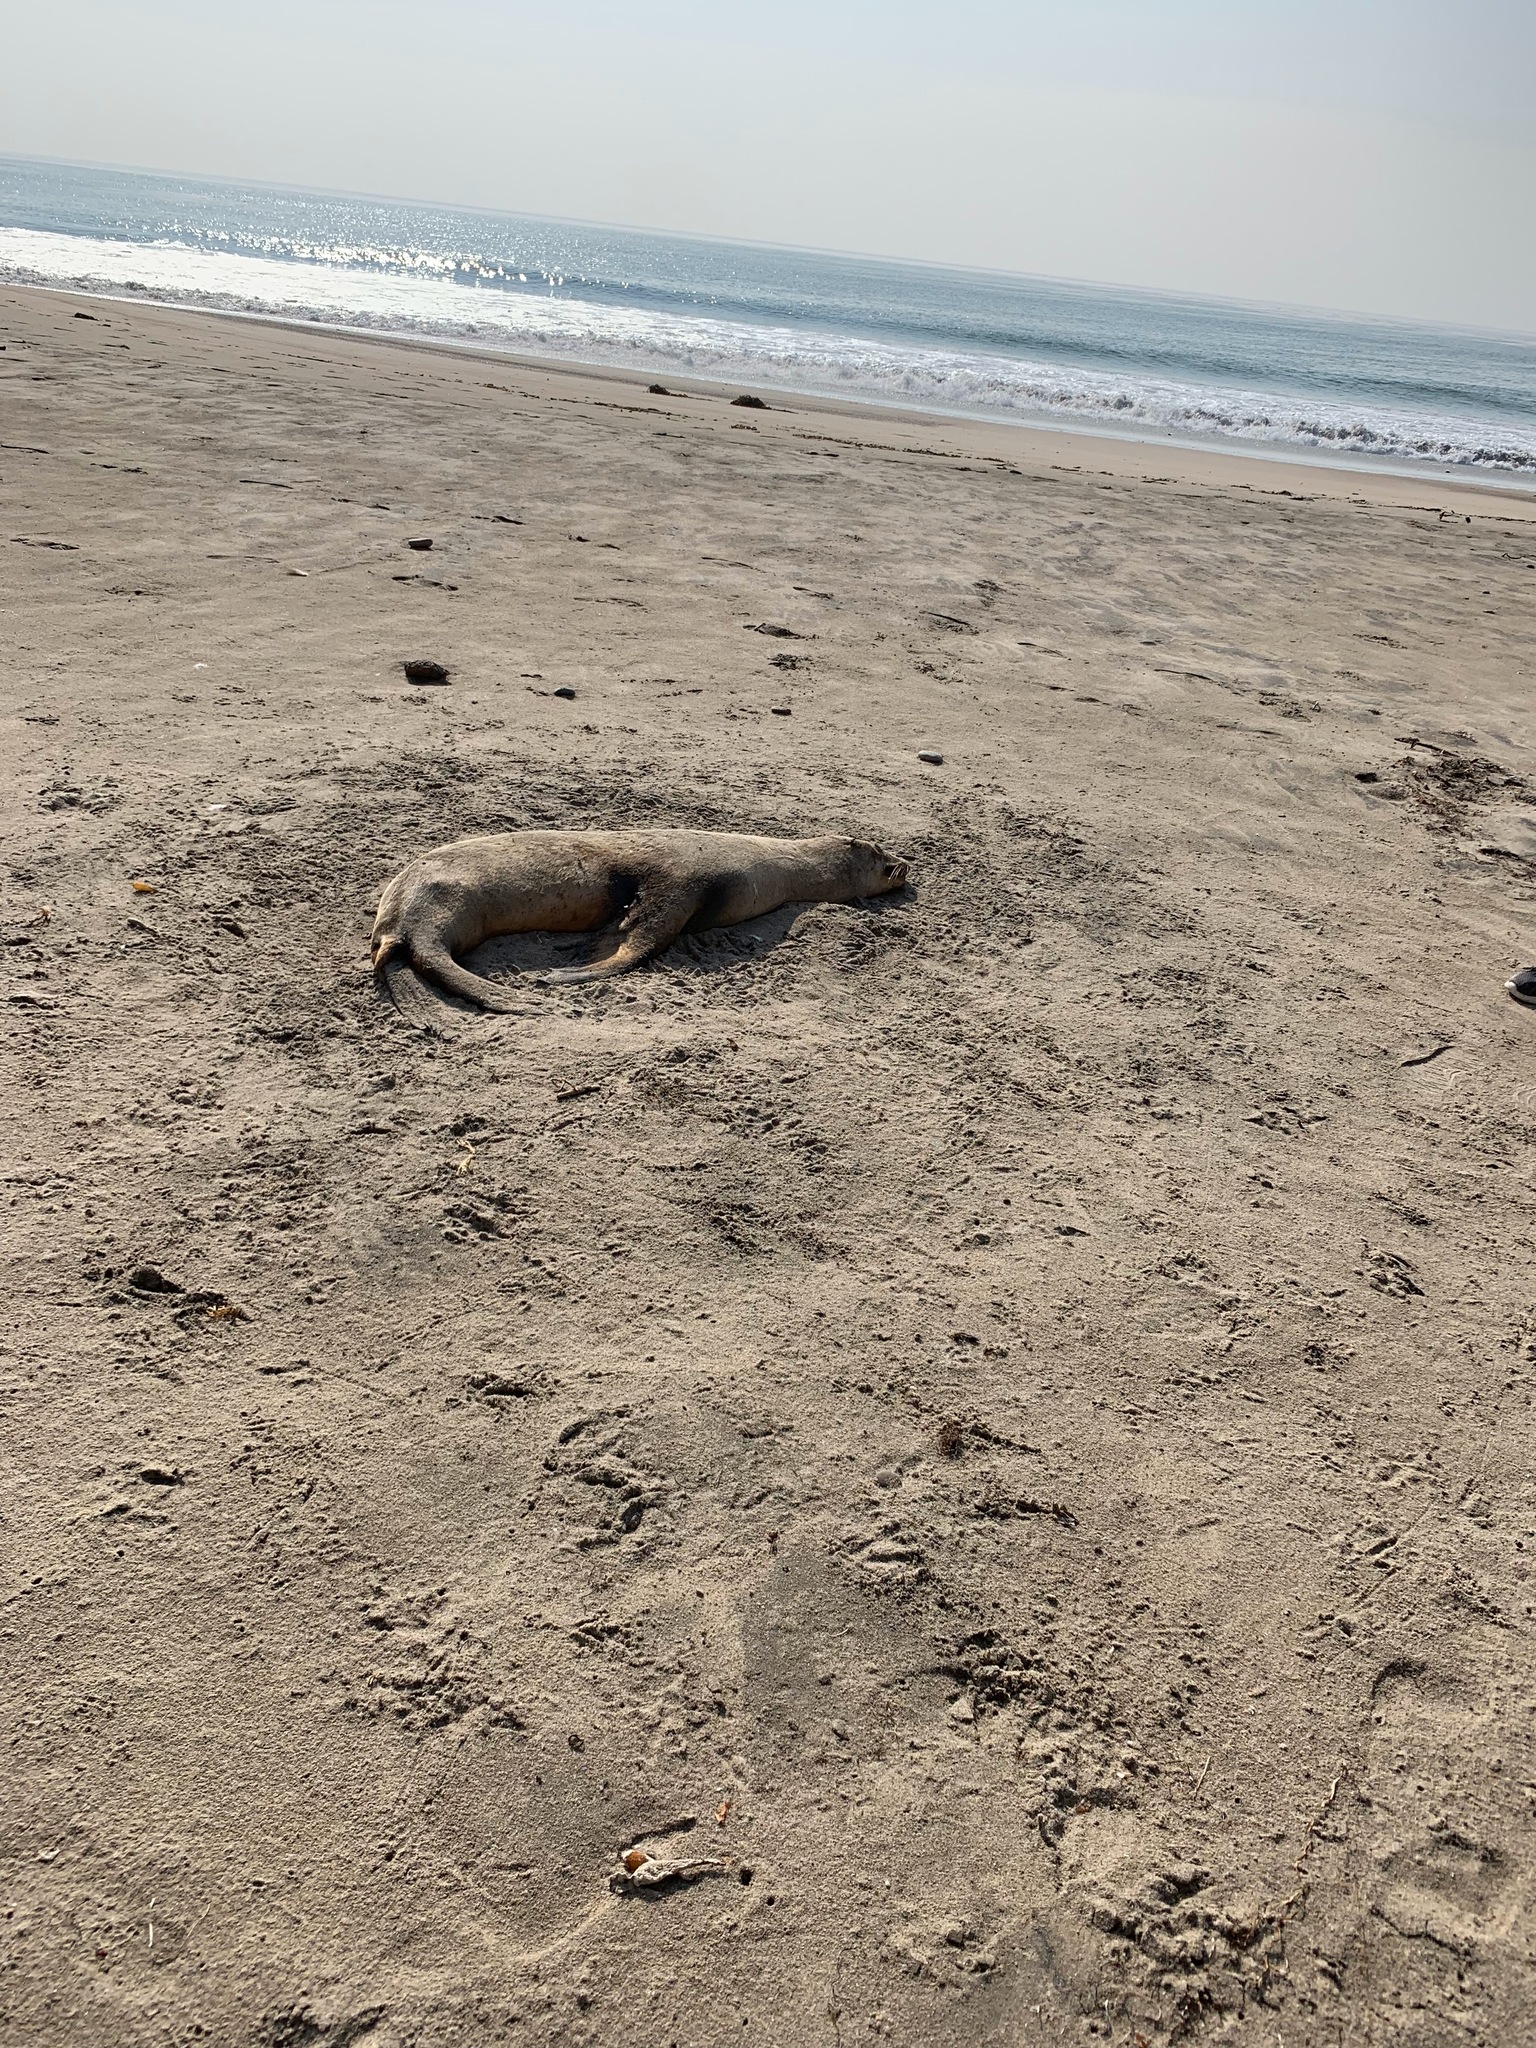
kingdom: Animalia
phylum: Chordata
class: Mammalia
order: Carnivora
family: Otariidae
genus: Zalophus
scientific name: Zalophus californianus
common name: California sea lion
